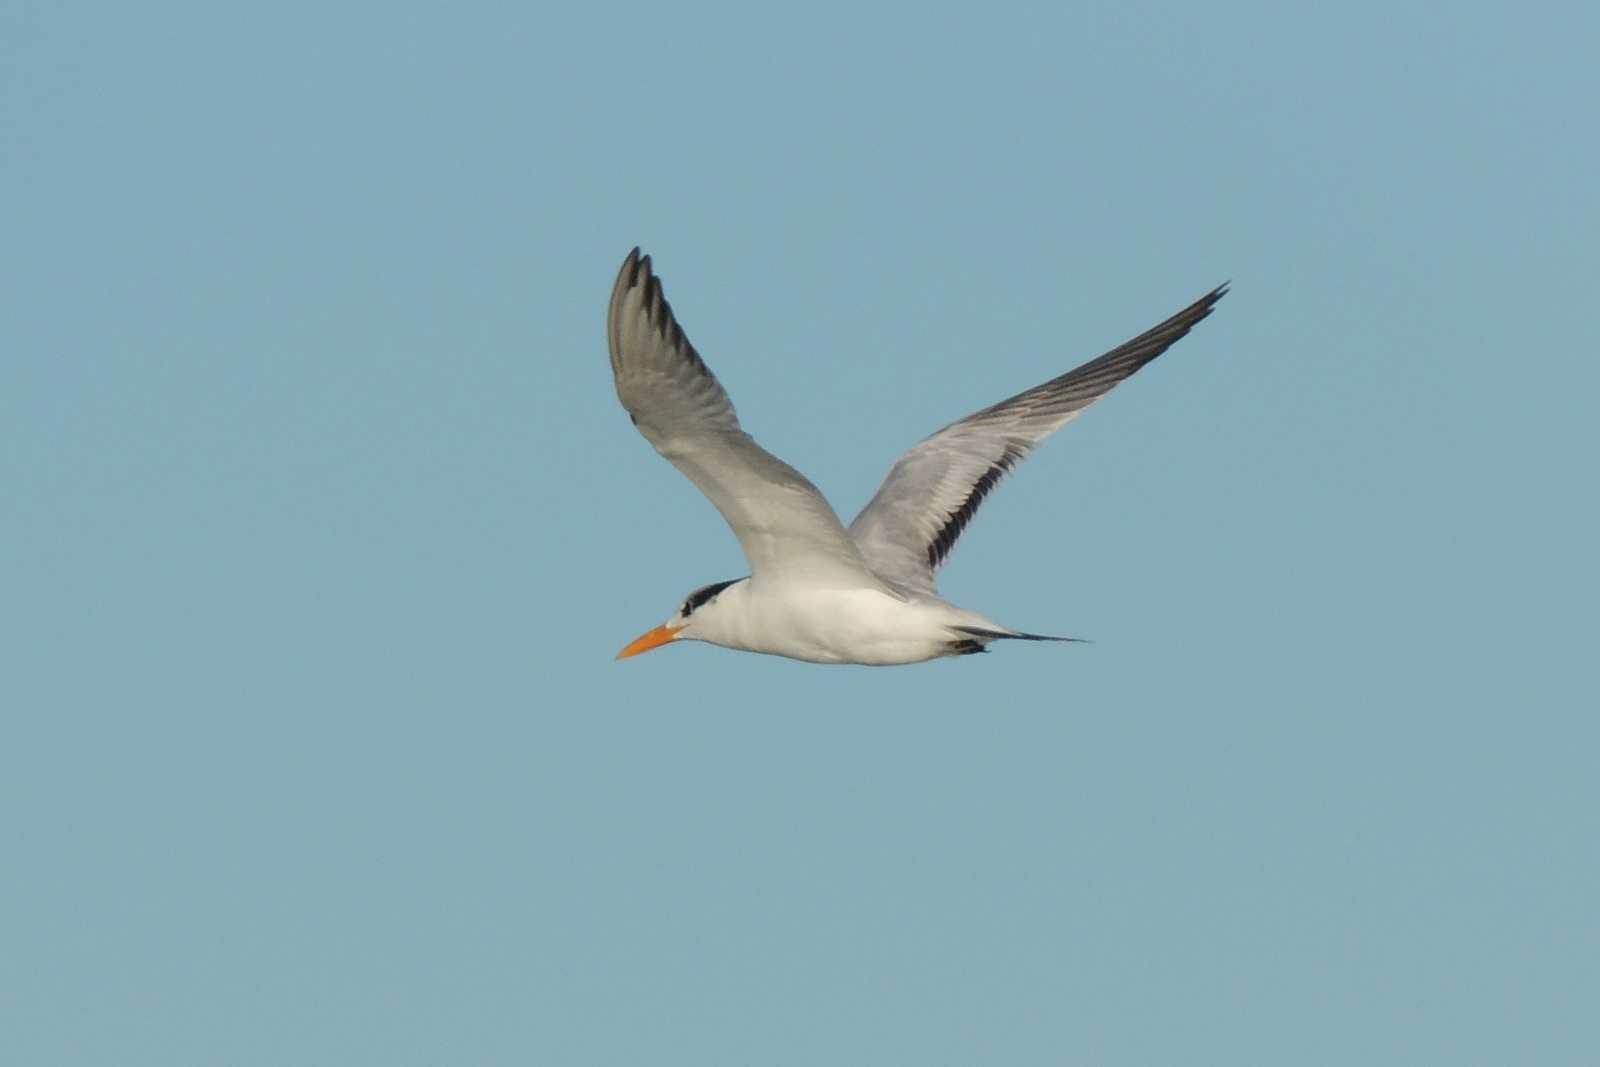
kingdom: Animalia
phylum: Chordata
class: Aves
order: Charadriiformes
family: Laridae
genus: Thalasseus
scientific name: Thalasseus maximus
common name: Royal tern
